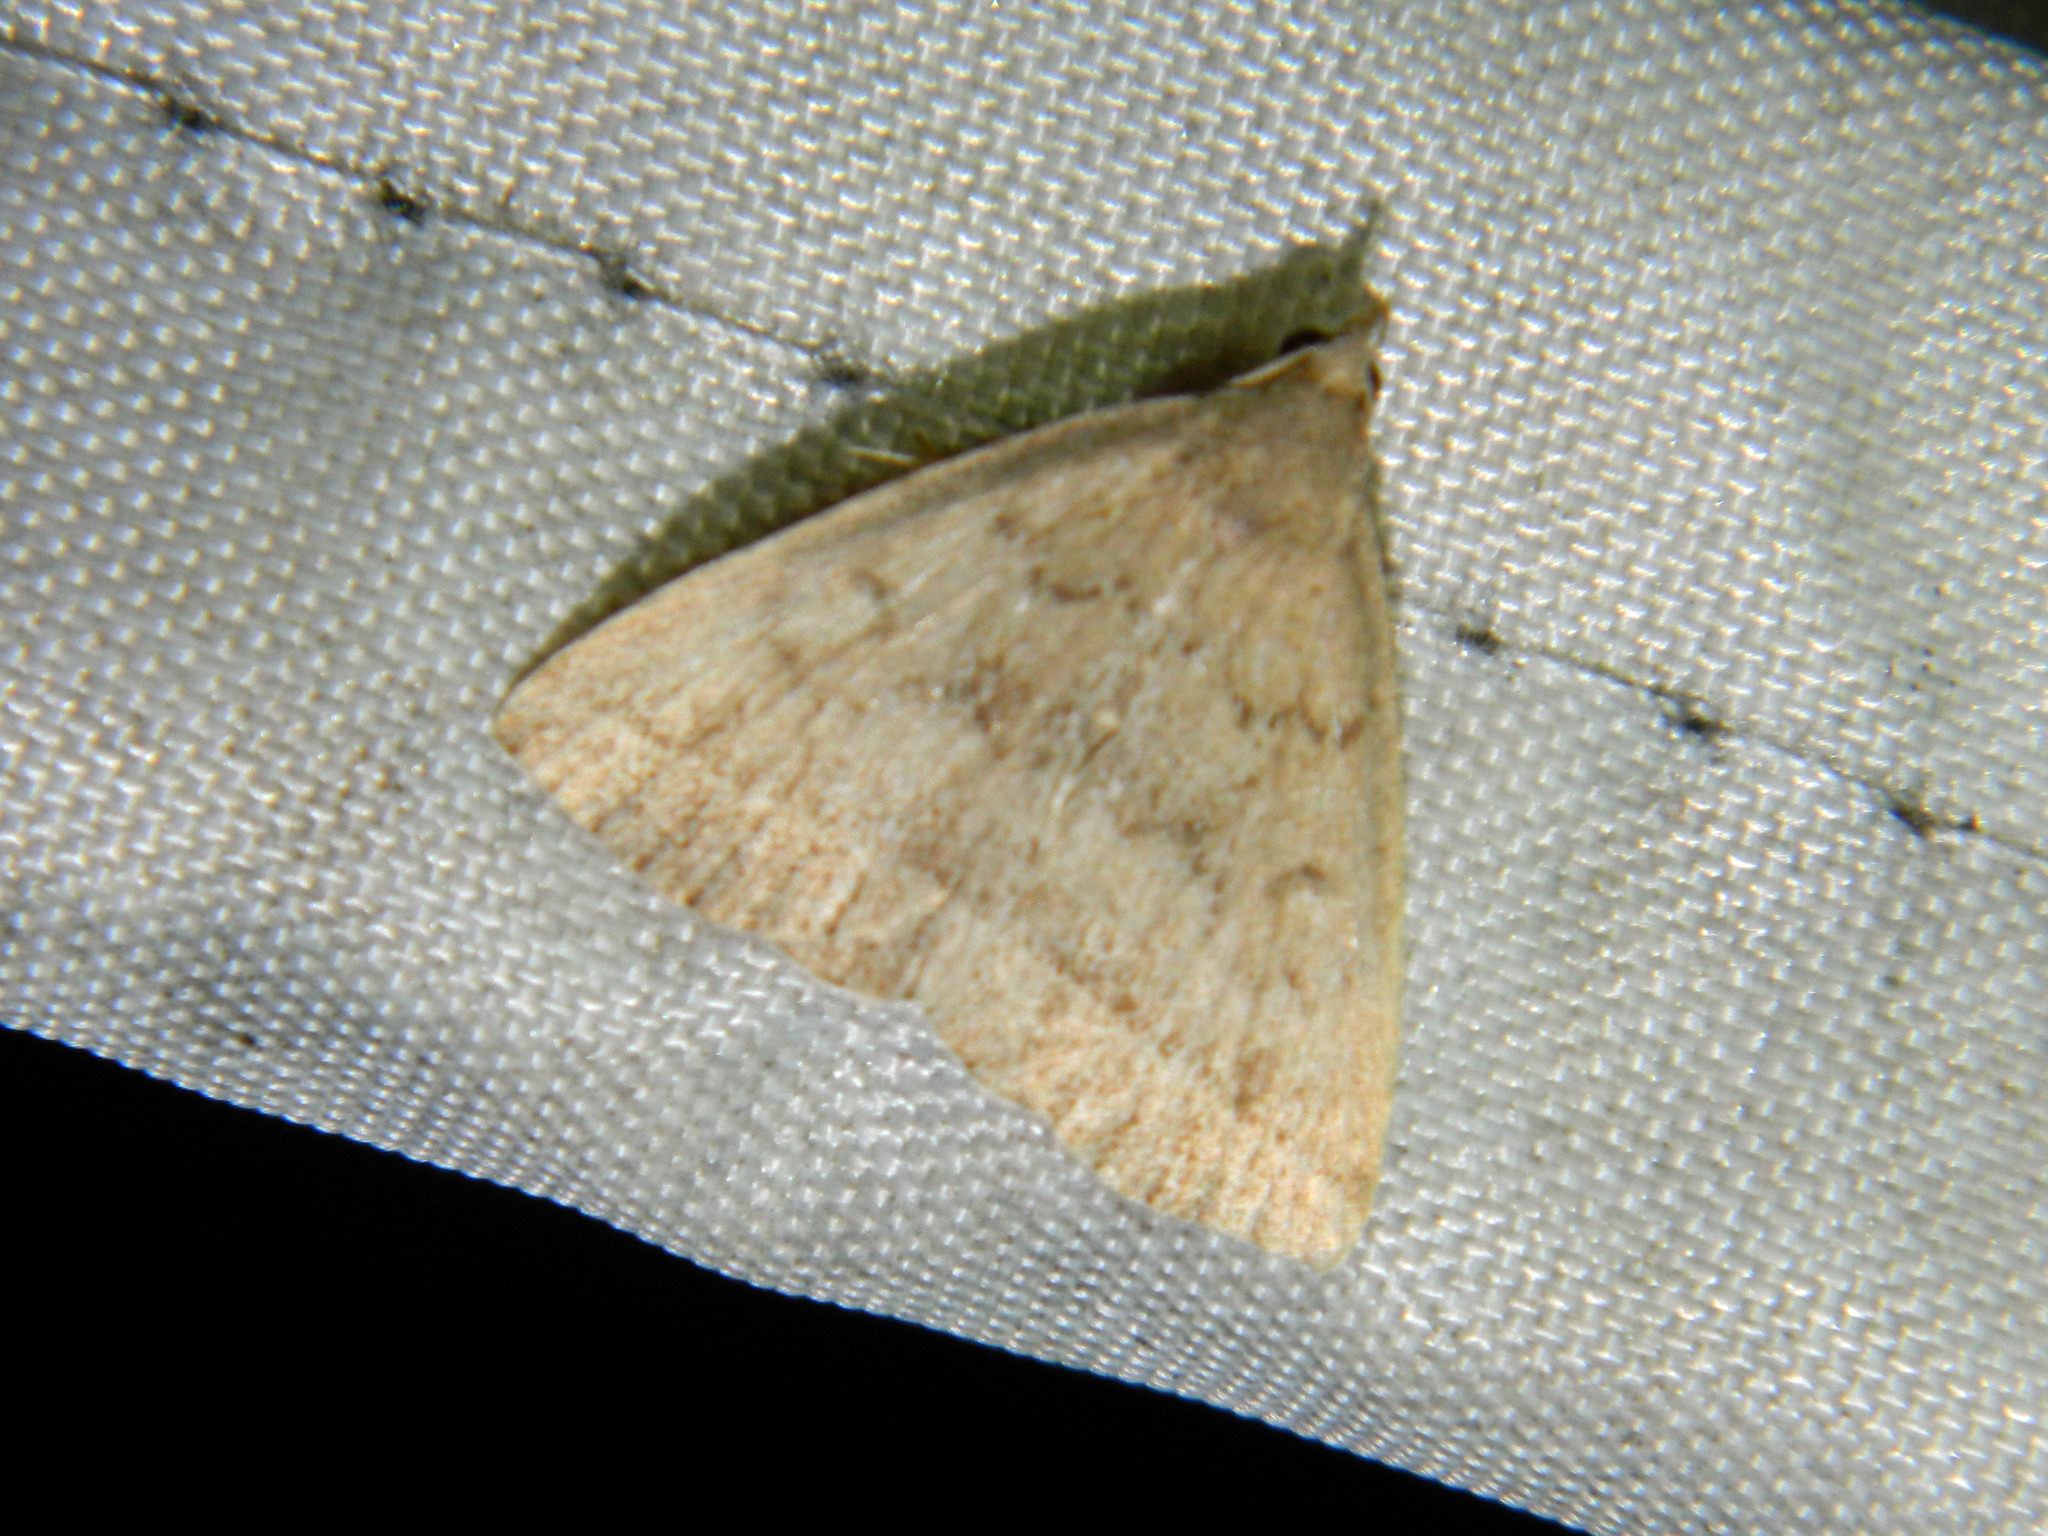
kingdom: Animalia
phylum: Arthropoda
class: Insecta
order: Lepidoptera
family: Erebidae
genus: Zanclognatha
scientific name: Zanclognatha jacchusalis
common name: Yellowish zanclognatha
